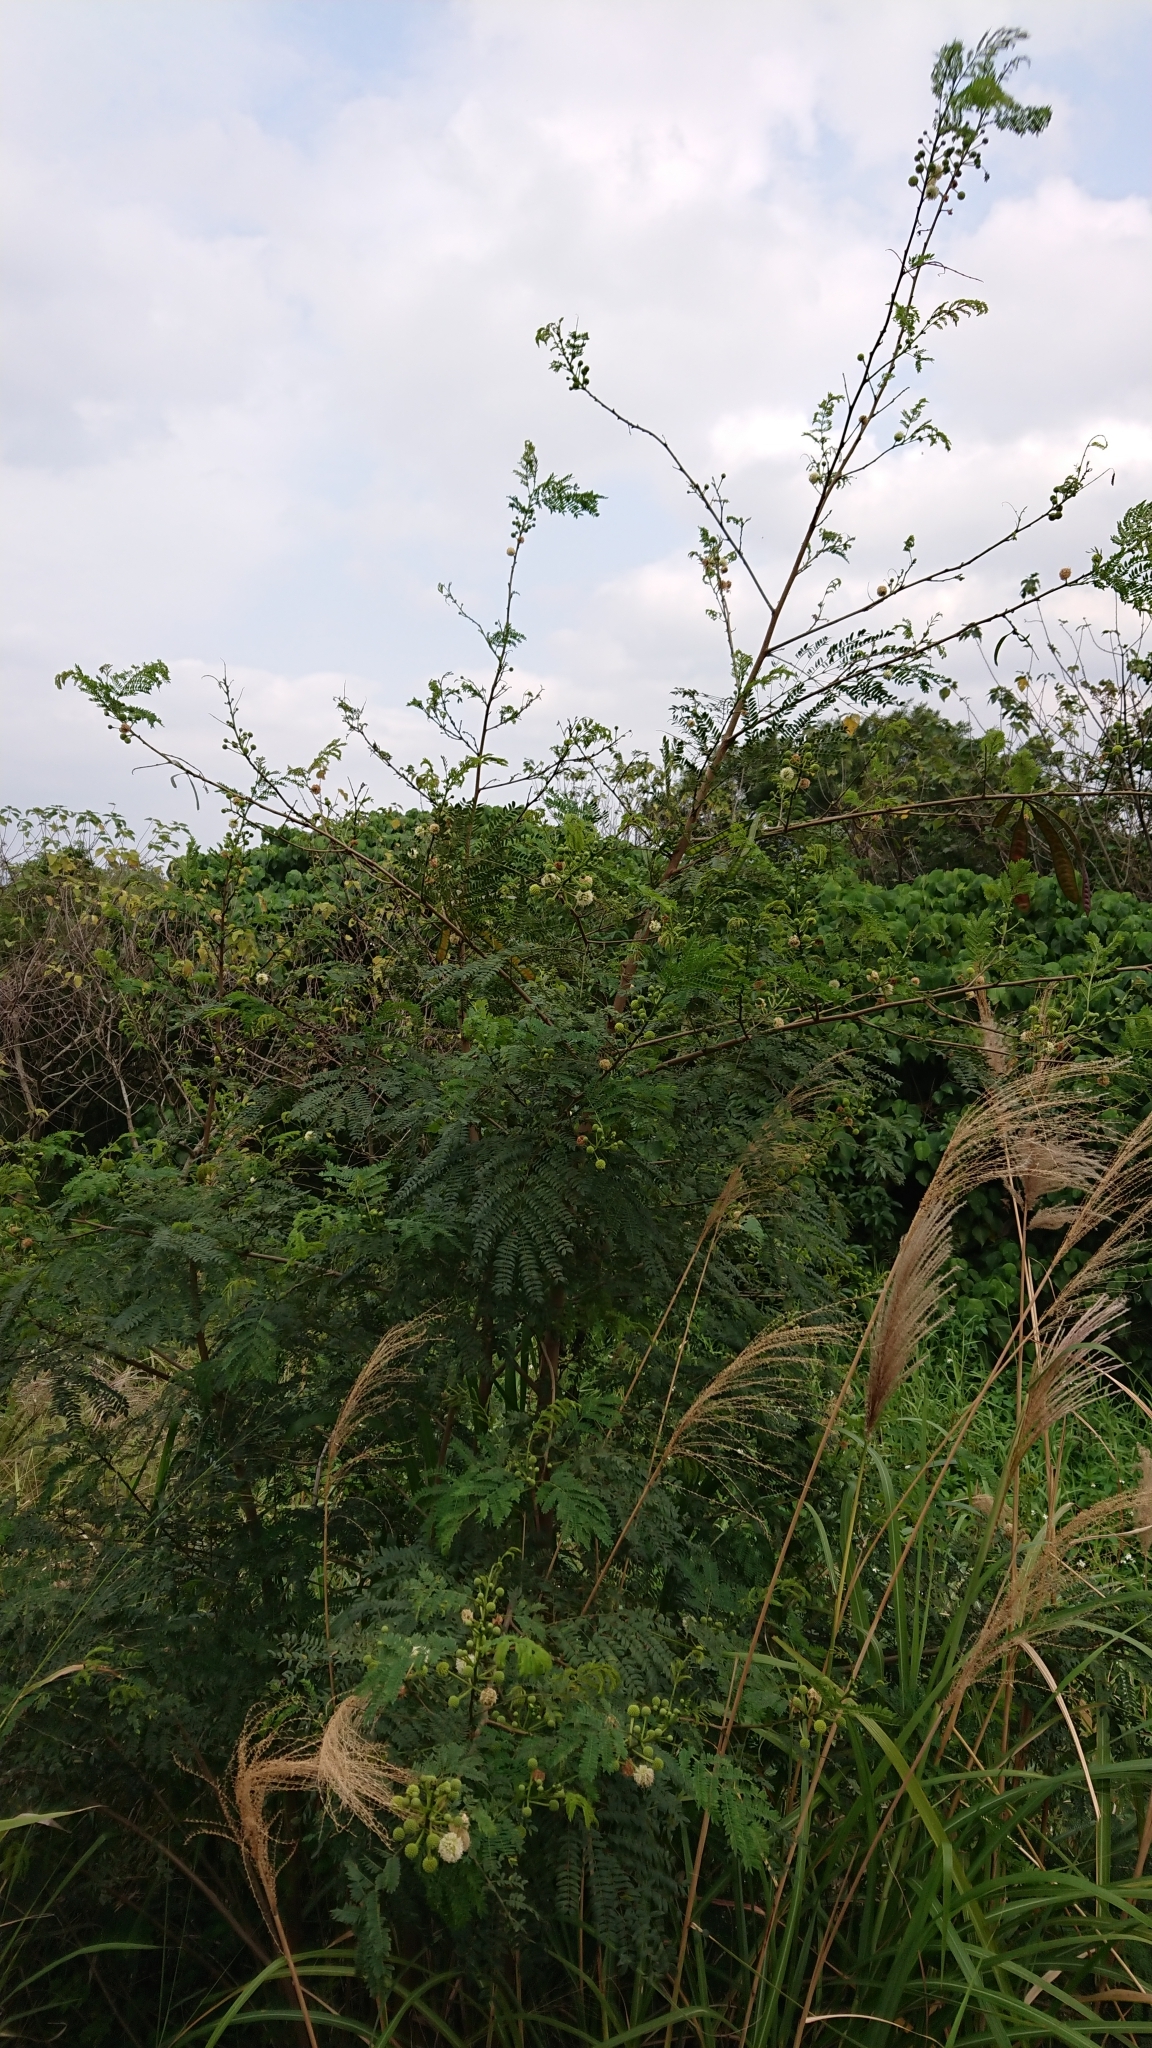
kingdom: Plantae
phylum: Tracheophyta
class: Magnoliopsida
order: Fabales
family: Fabaceae
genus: Leucaena
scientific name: Leucaena leucocephala
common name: White leadtree
